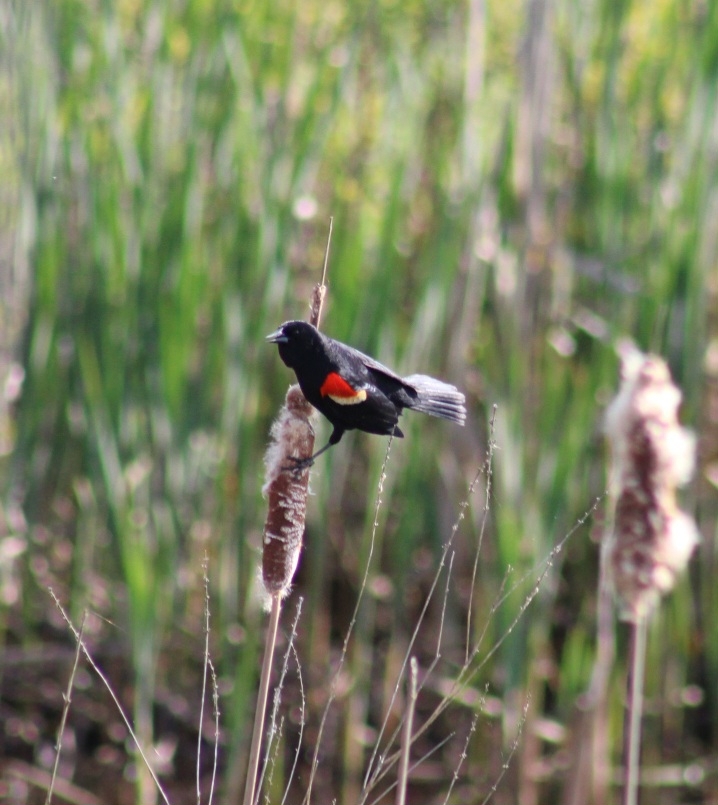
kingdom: Animalia
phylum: Chordata
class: Aves
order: Passeriformes
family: Icteridae
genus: Agelaius
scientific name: Agelaius phoeniceus
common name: Red-winged blackbird
